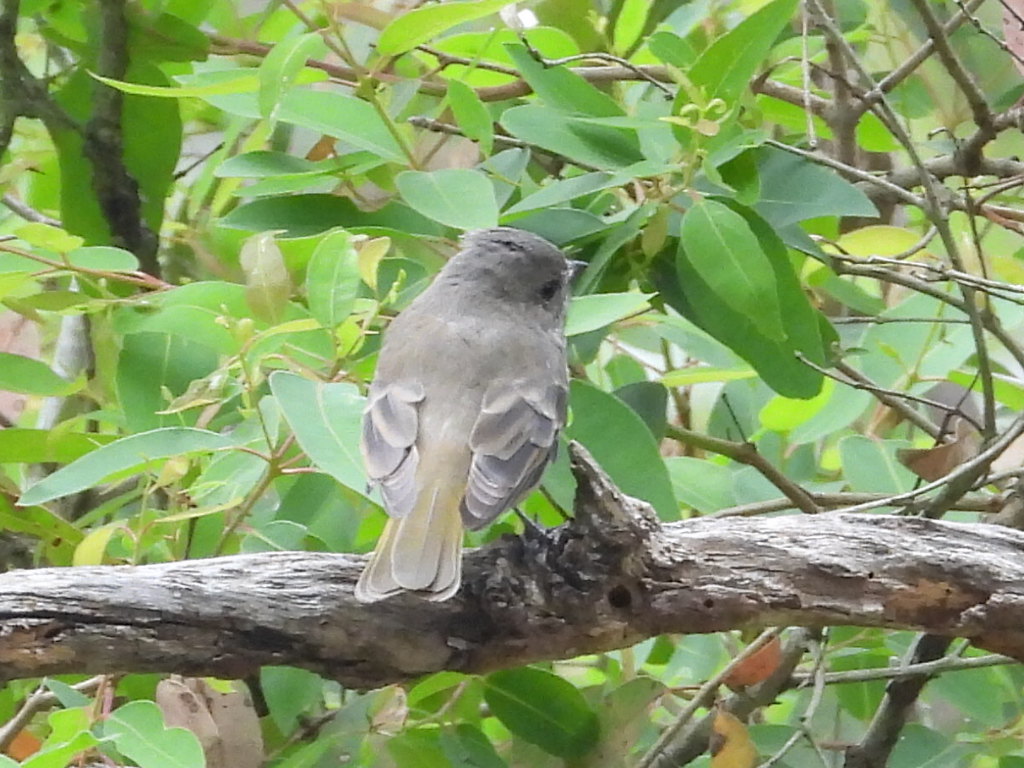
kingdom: Animalia
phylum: Chordata
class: Aves
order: Passeriformes
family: Pachycephalidae
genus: Pachycephala
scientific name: Pachycephala pectoralis
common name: Australian golden whistler
